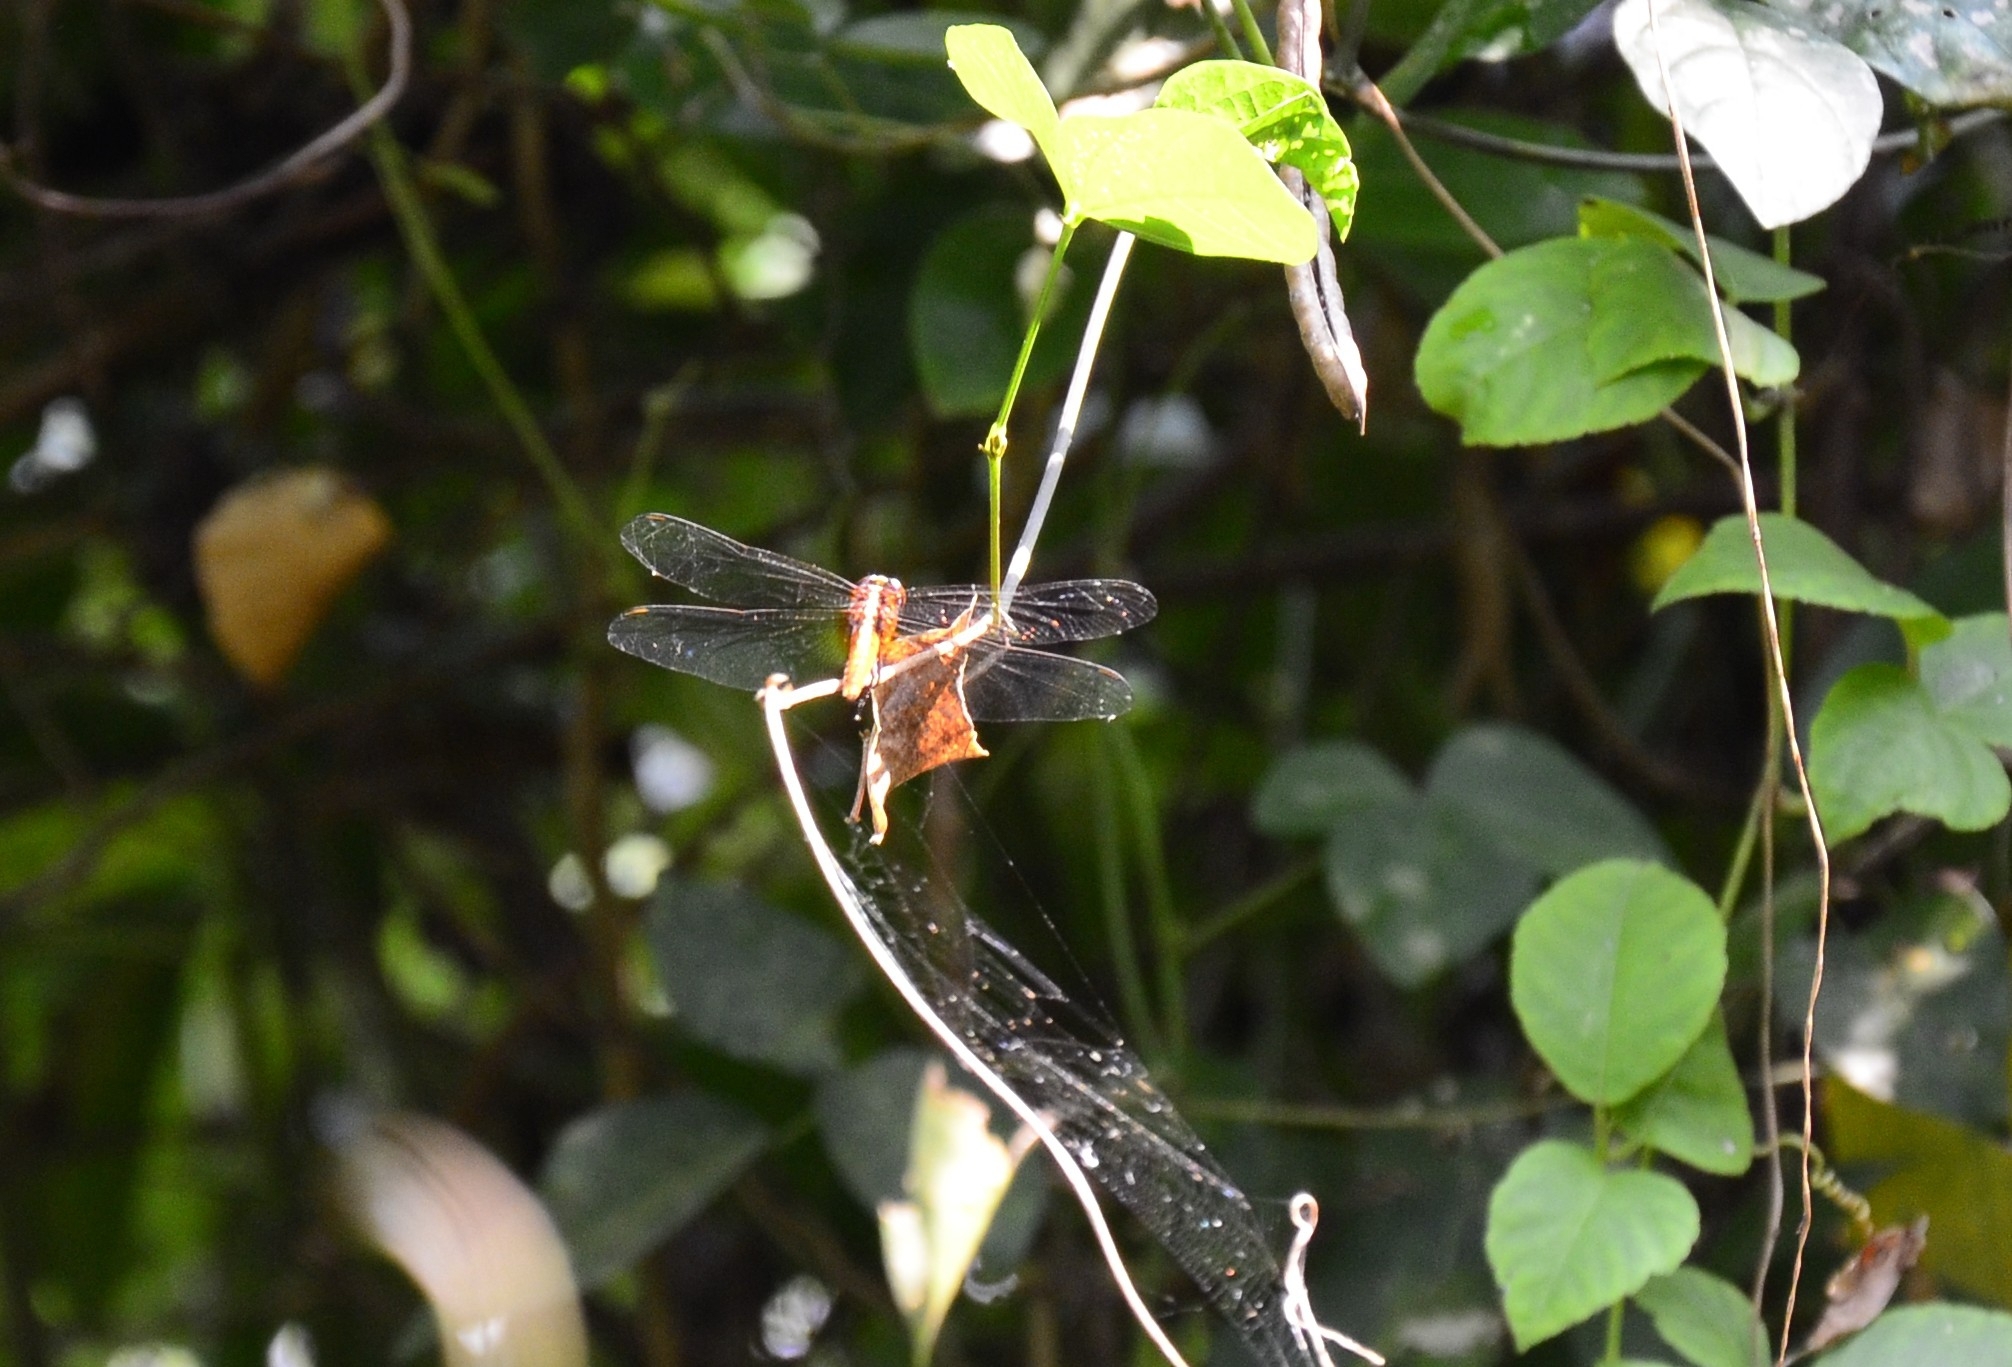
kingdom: Animalia
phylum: Arthropoda
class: Insecta
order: Odonata
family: Libellulidae
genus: Rhodothemis
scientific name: Rhodothemis rufa
